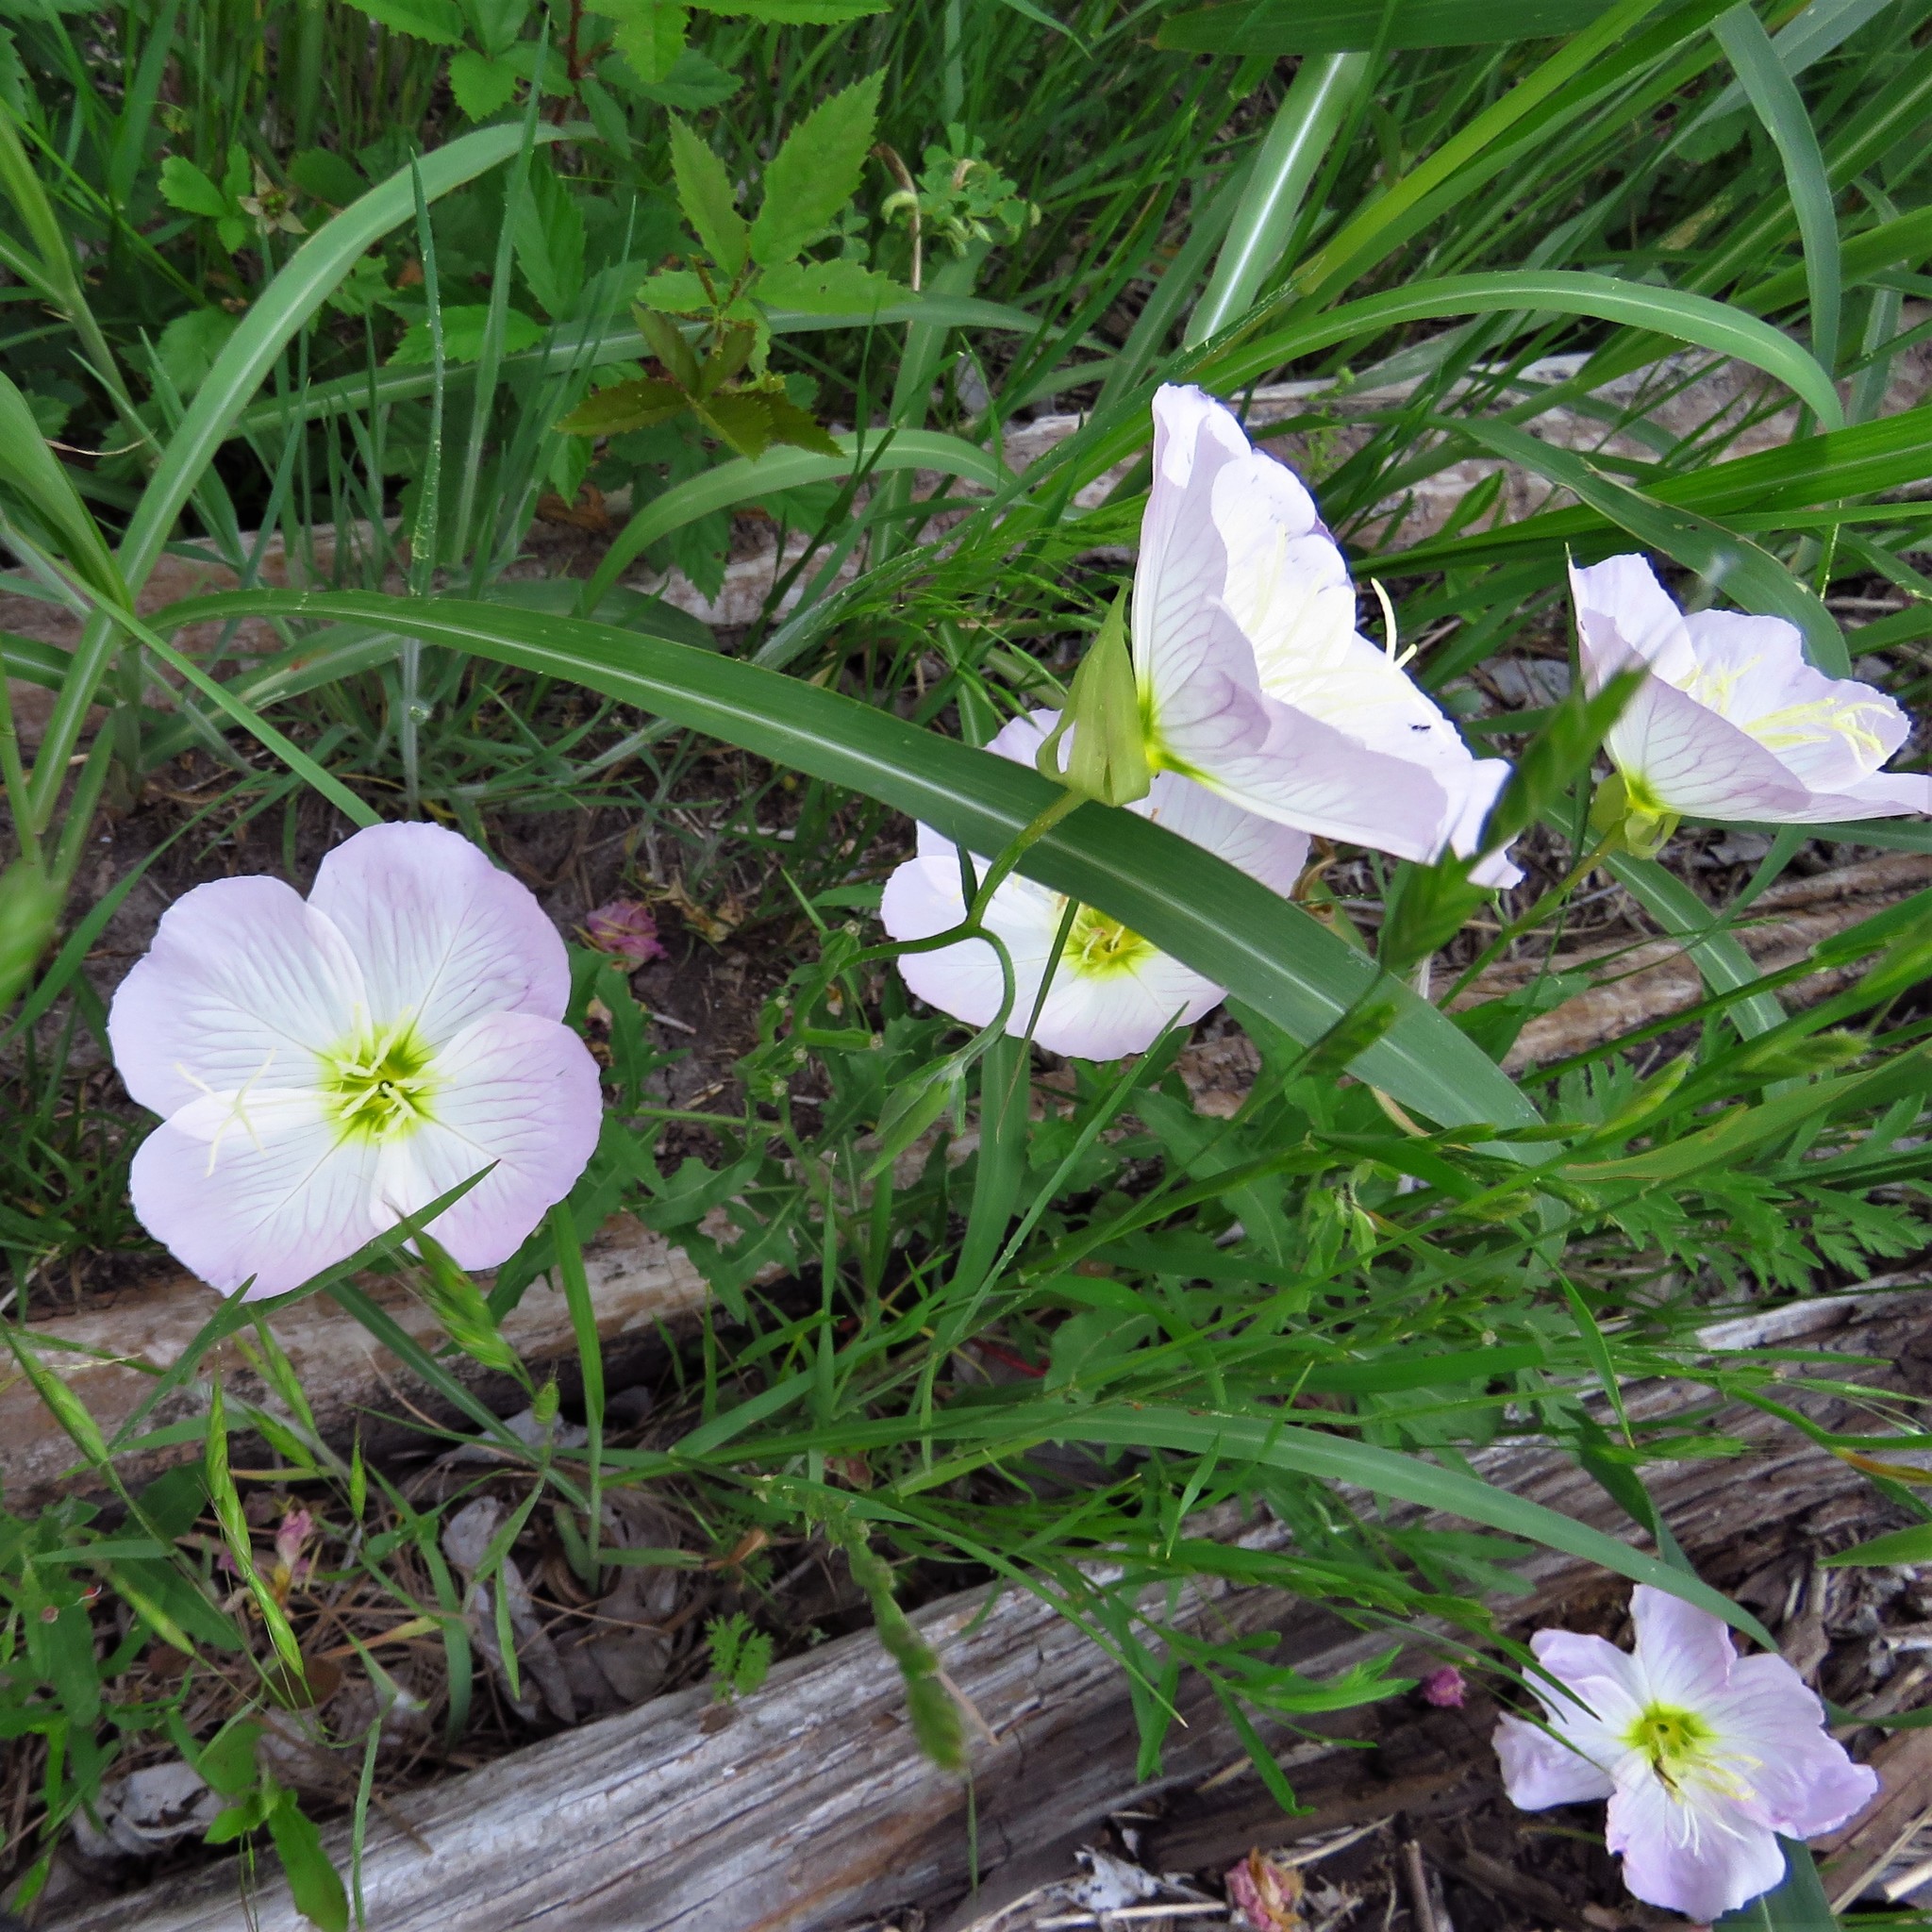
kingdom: Plantae
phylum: Tracheophyta
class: Magnoliopsida
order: Myrtales
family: Onagraceae
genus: Oenothera
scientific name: Oenothera speciosa
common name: White evening-primrose
